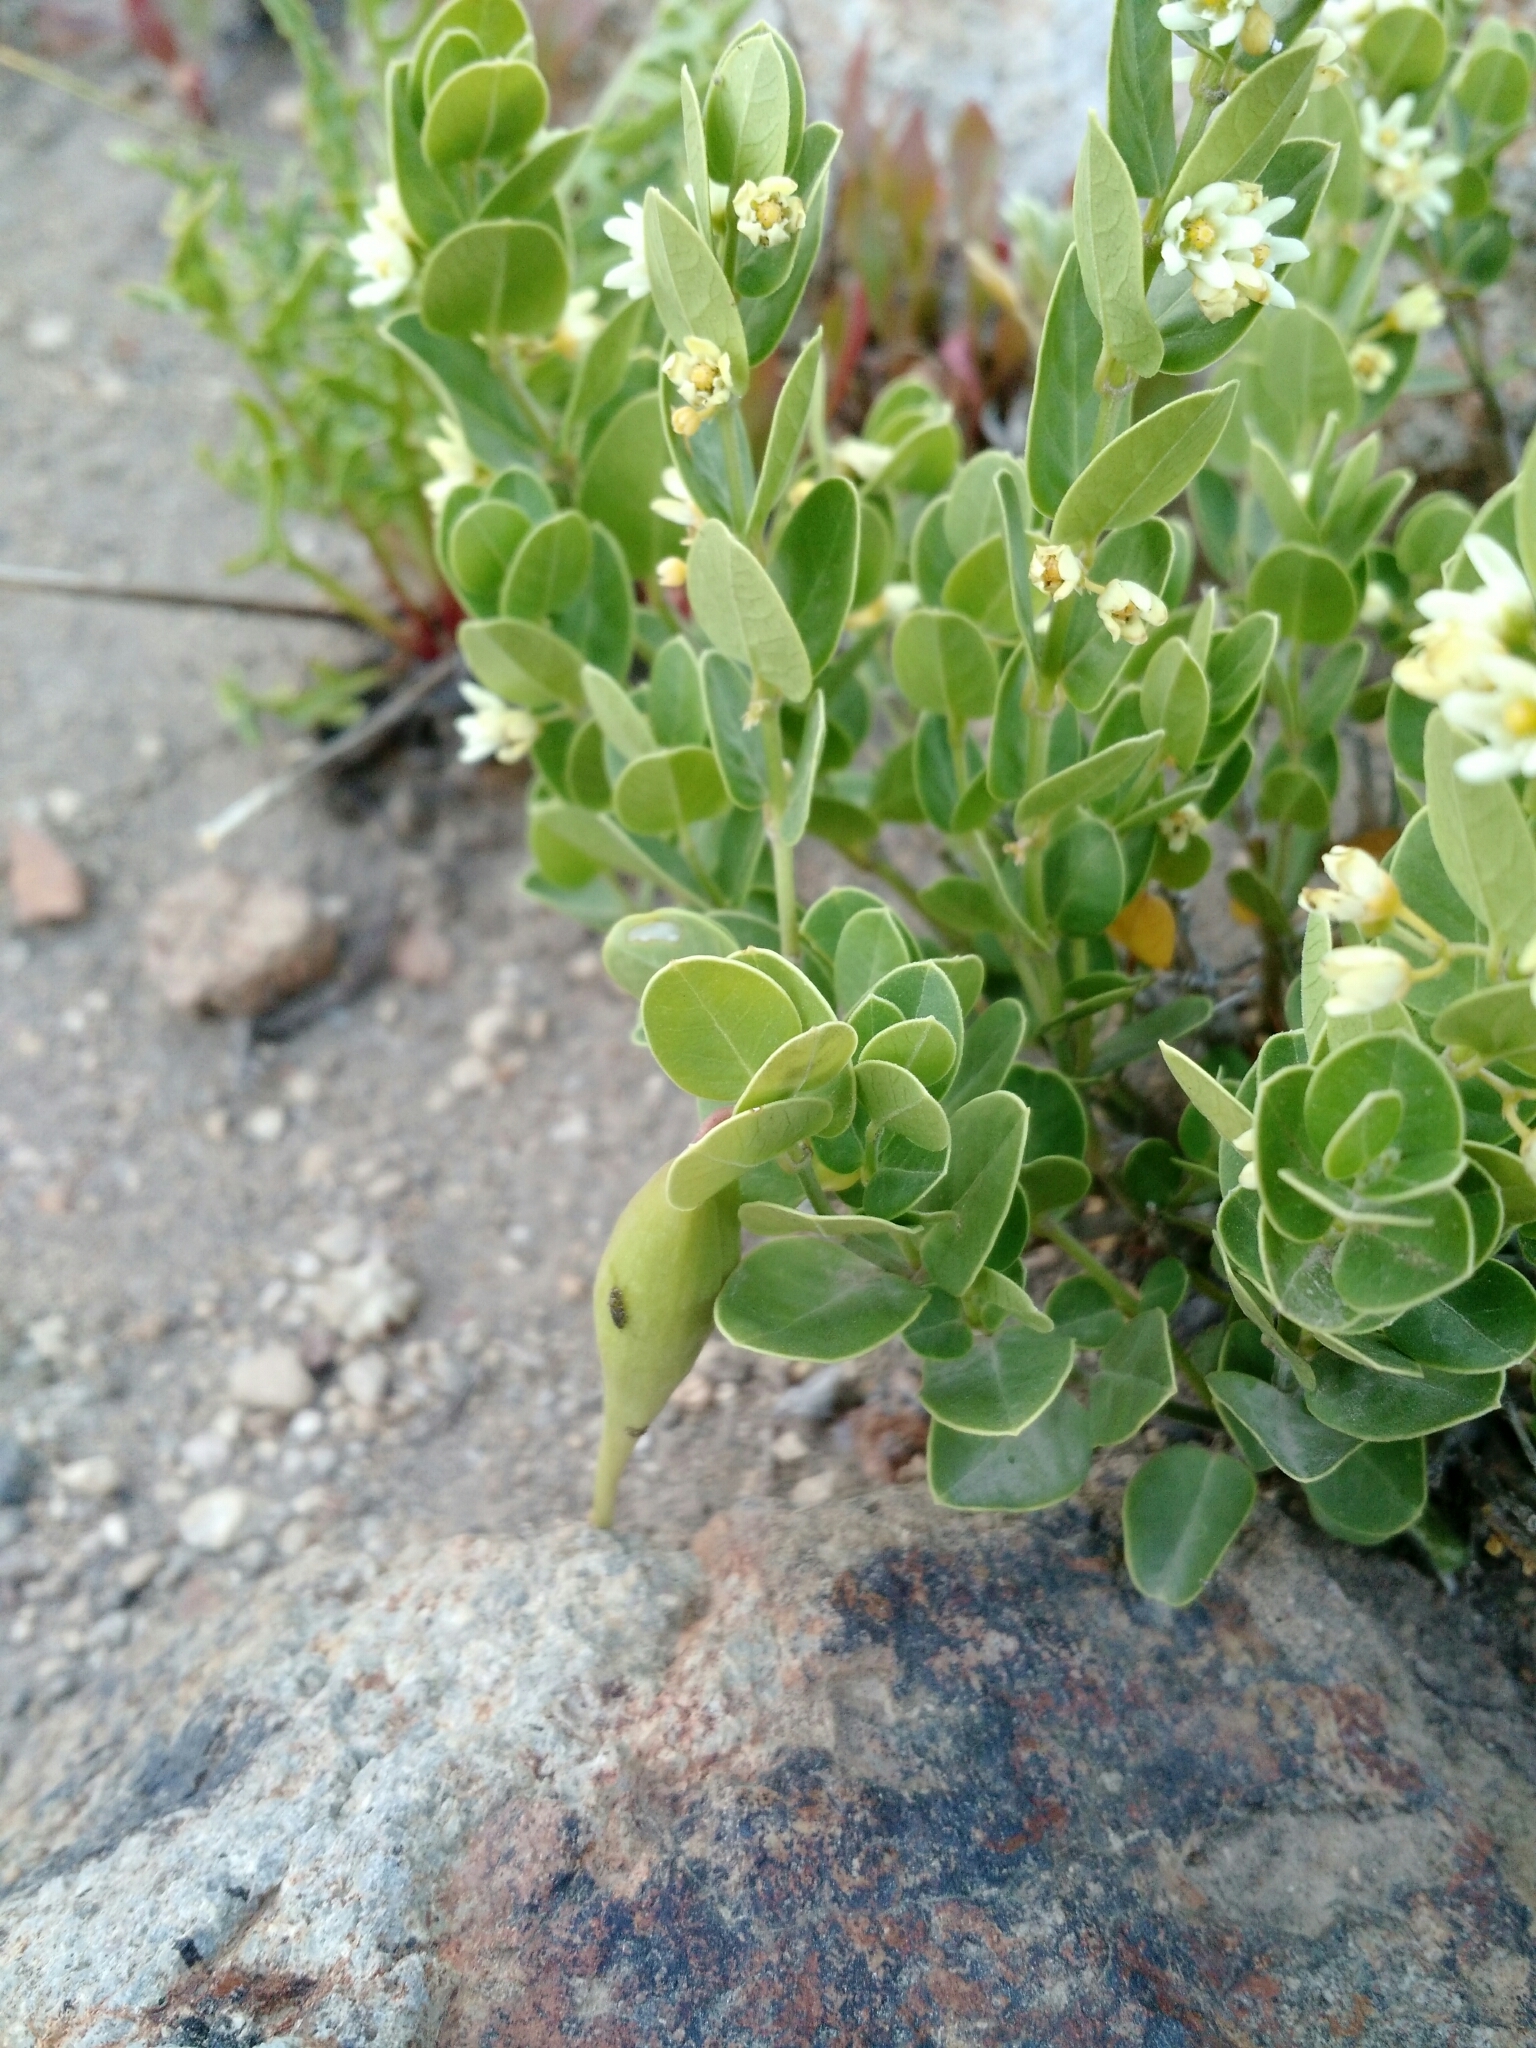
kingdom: Plantae
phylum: Tracheophyta
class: Magnoliopsida
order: Gentianales
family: Apocynaceae
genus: Diplolepis
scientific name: Diplolepis nummulariifolia
